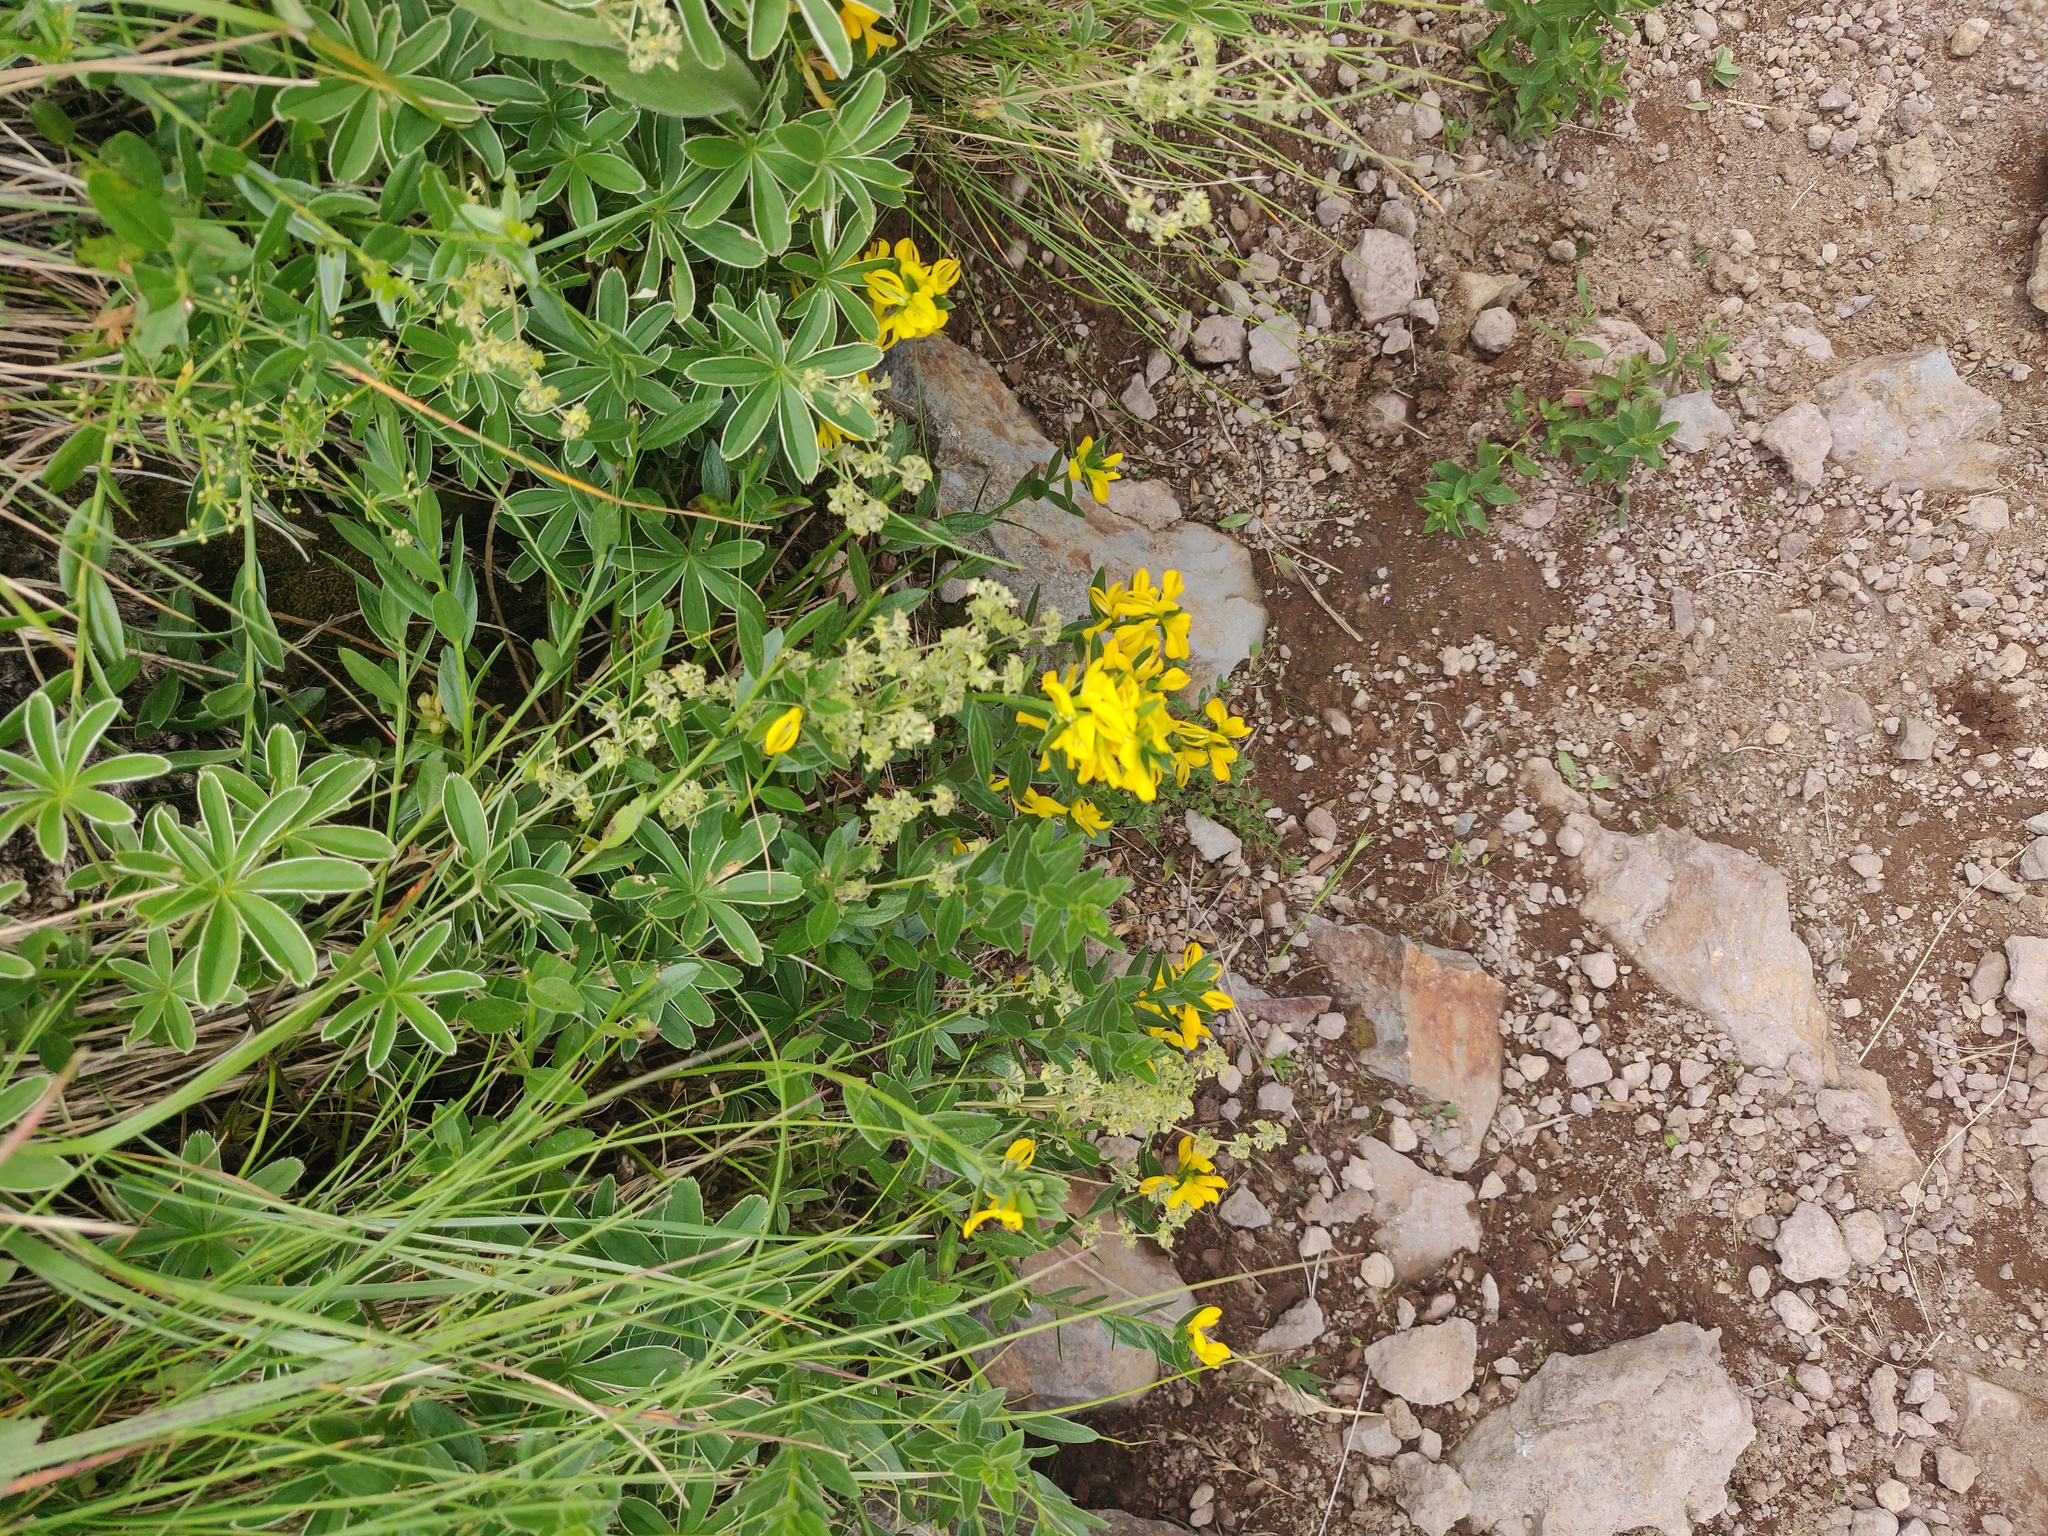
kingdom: Plantae
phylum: Tracheophyta
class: Magnoliopsida
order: Fabales
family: Fabaceae
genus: Genista
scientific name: Genista tinctoria
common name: Dyer's greenweed
